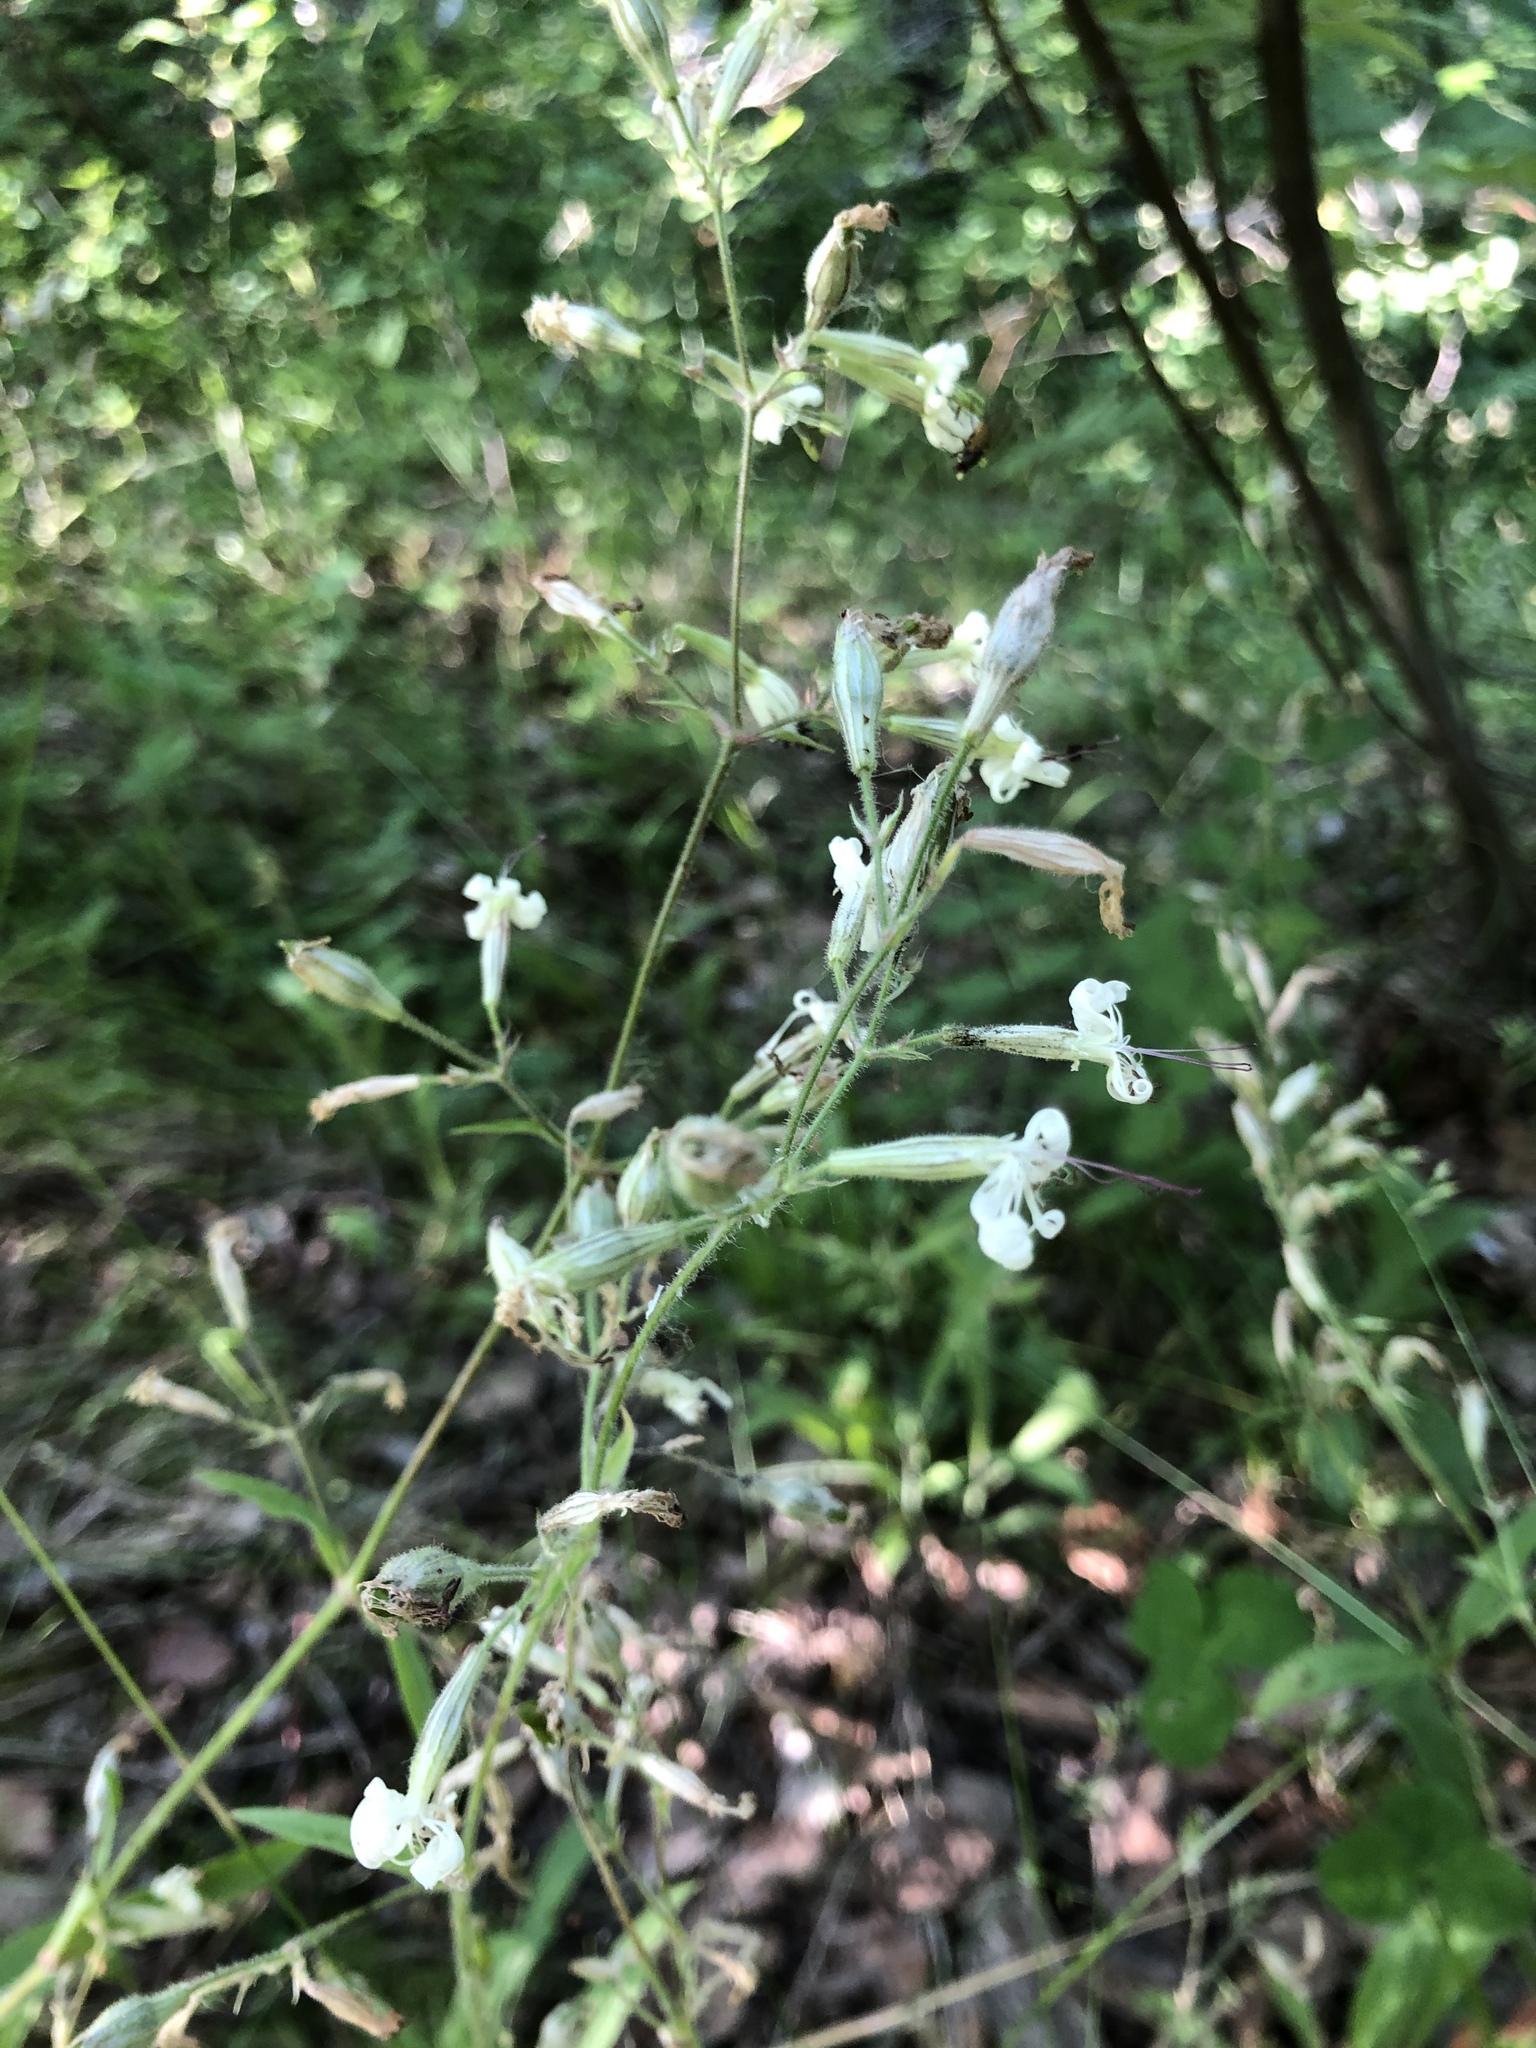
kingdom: Plantae
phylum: Tracheophyta
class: Magnoliopsida
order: Caryophyllales
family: Caryophyllaceae
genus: Silene
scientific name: Silene nutans
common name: Nottingham catchfly
